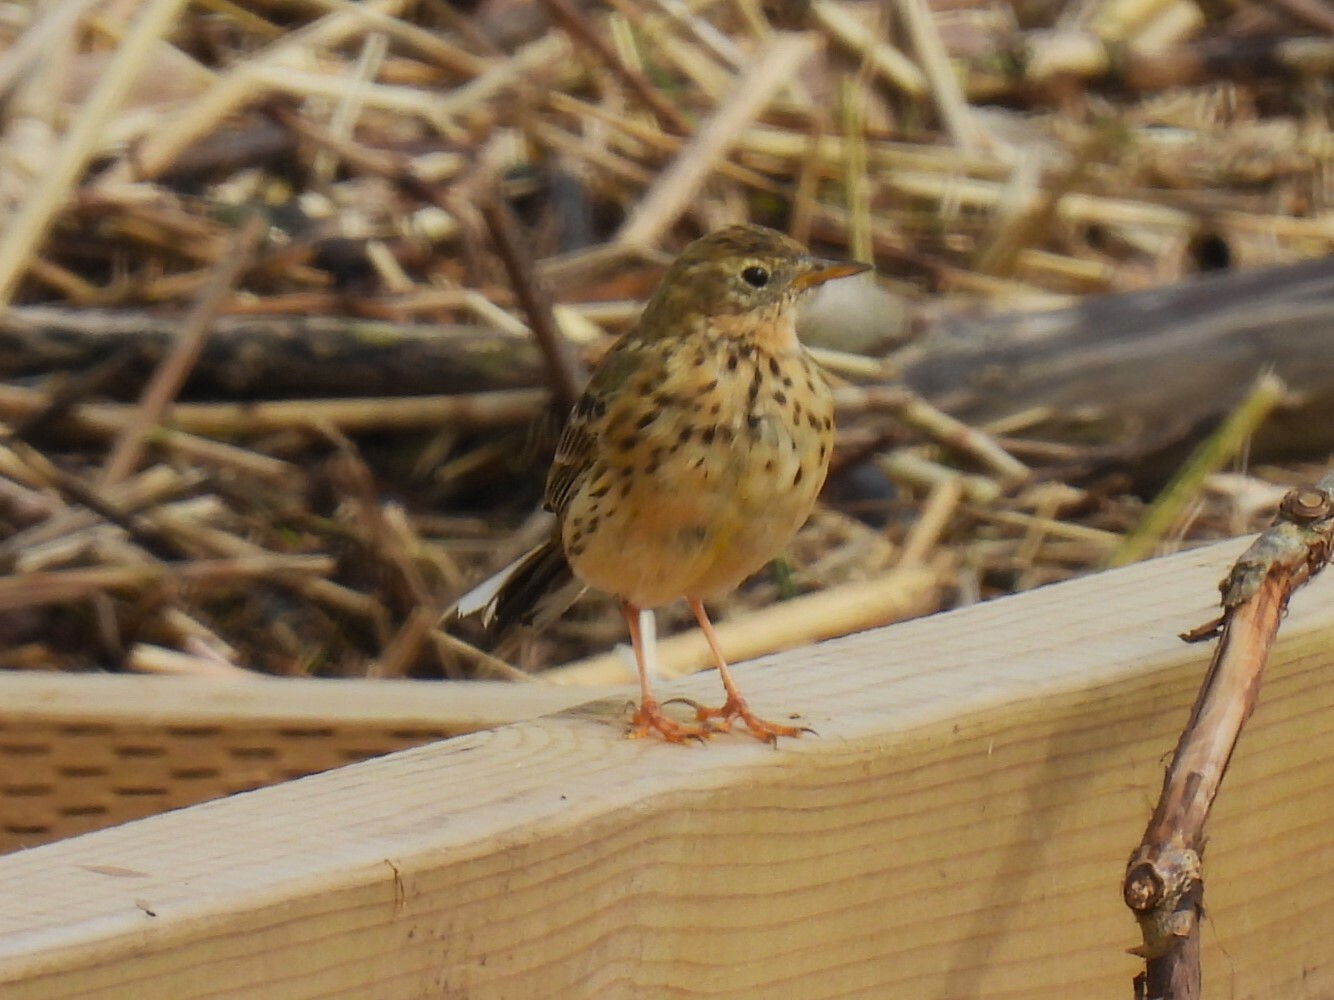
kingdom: Animalia
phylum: Chordata
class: Aves
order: Passeriformes
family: Motacillidae
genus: Anthus
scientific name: Anthus pratensis
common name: Meadow pipit
